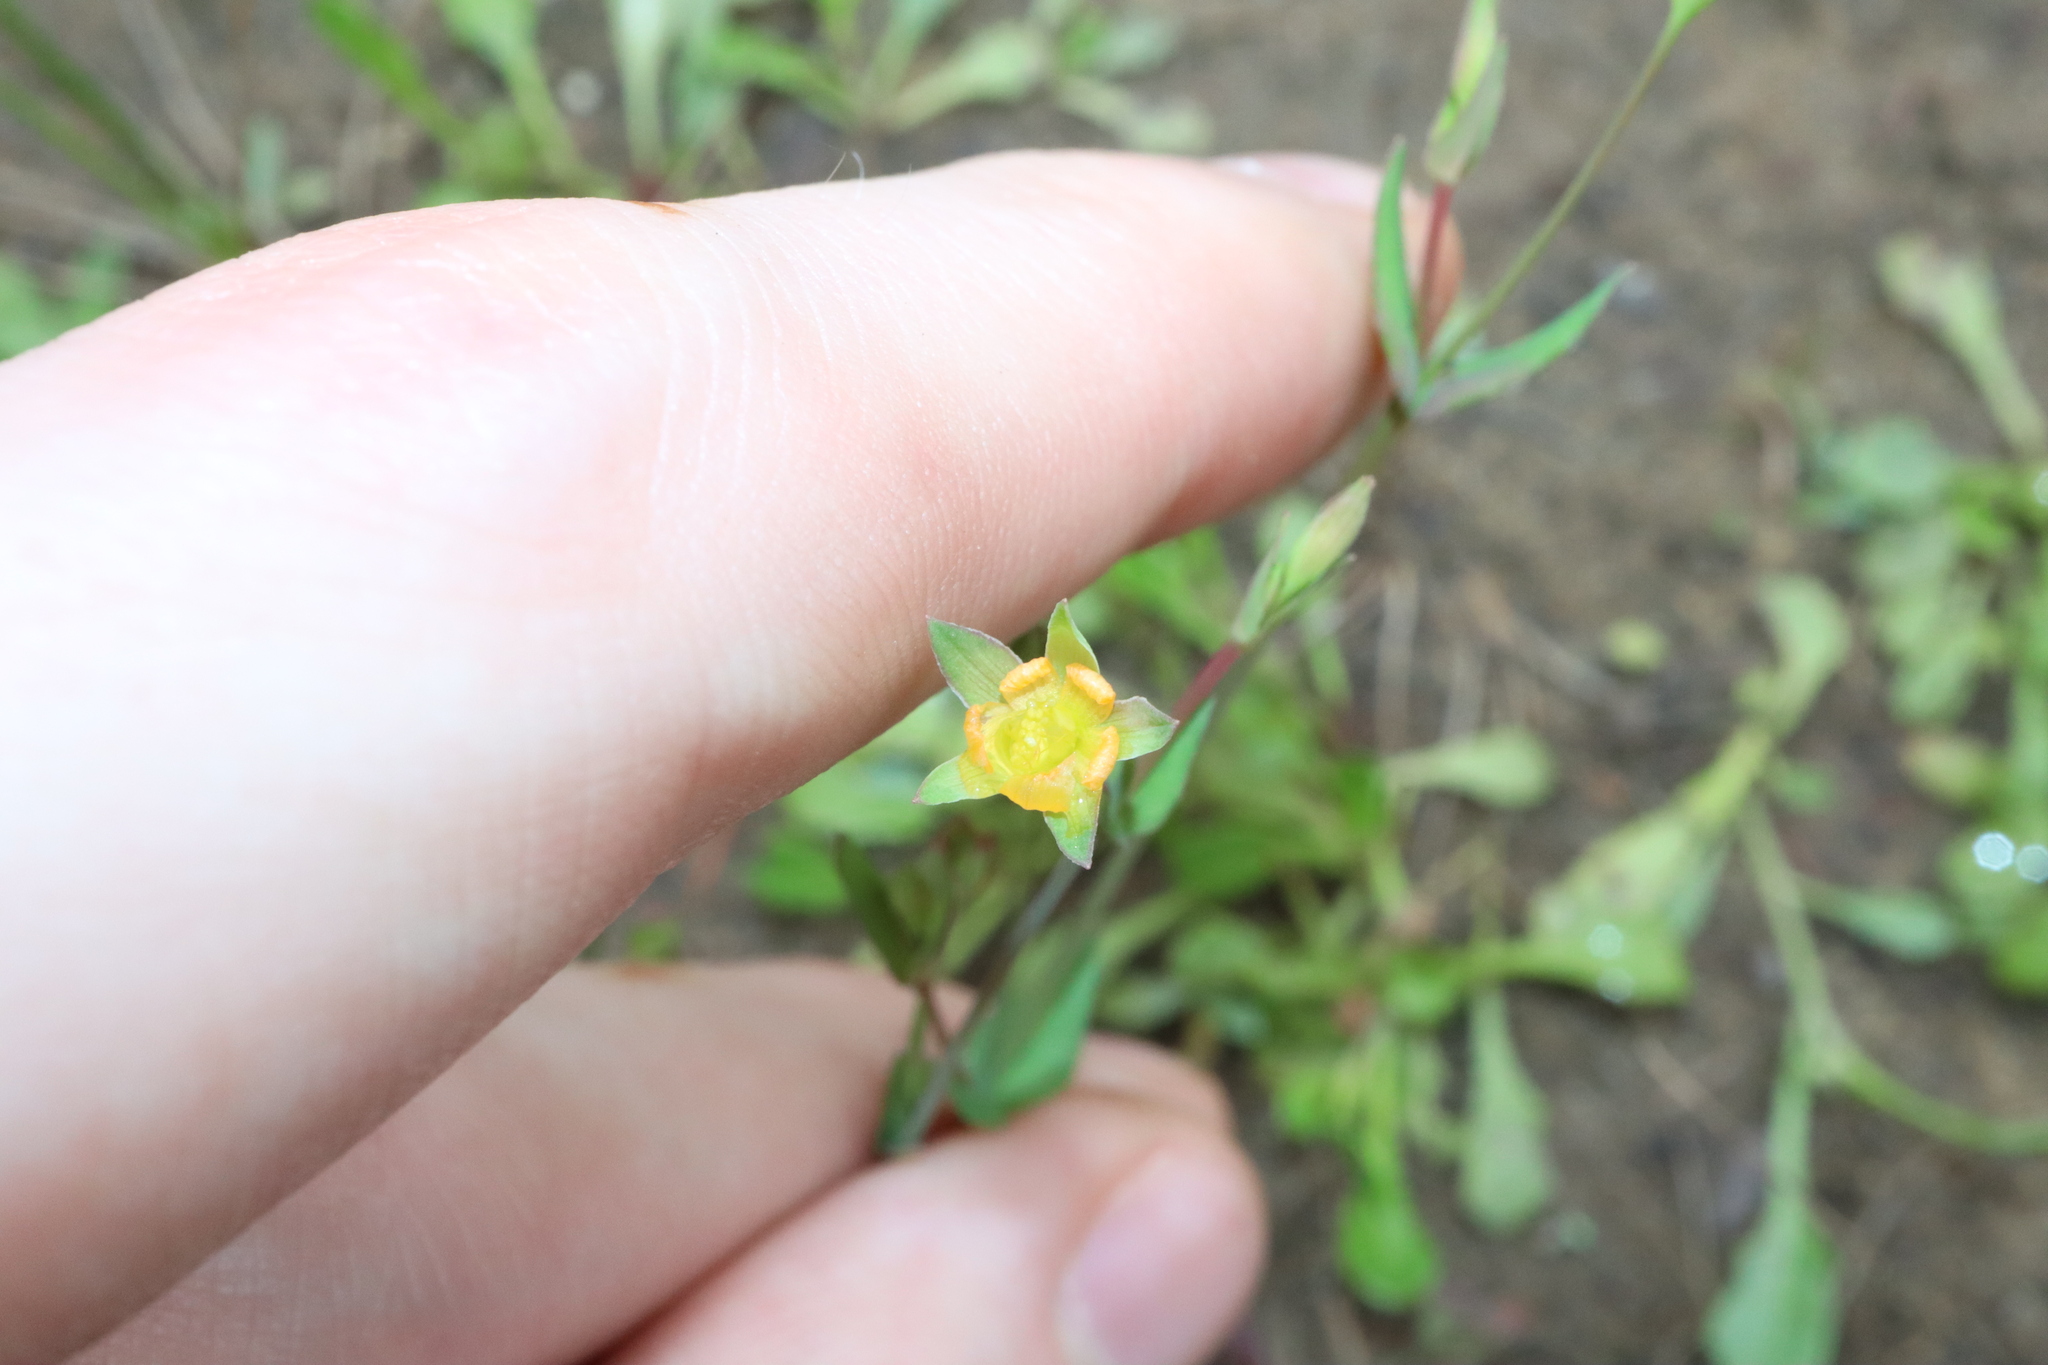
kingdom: Plantae
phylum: Tracheophyta
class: Magnoliopsida
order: Malpighiales
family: Hypericaceae
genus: Hypericum
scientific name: Hypericum gramineum
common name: Grassy st. johnswort
